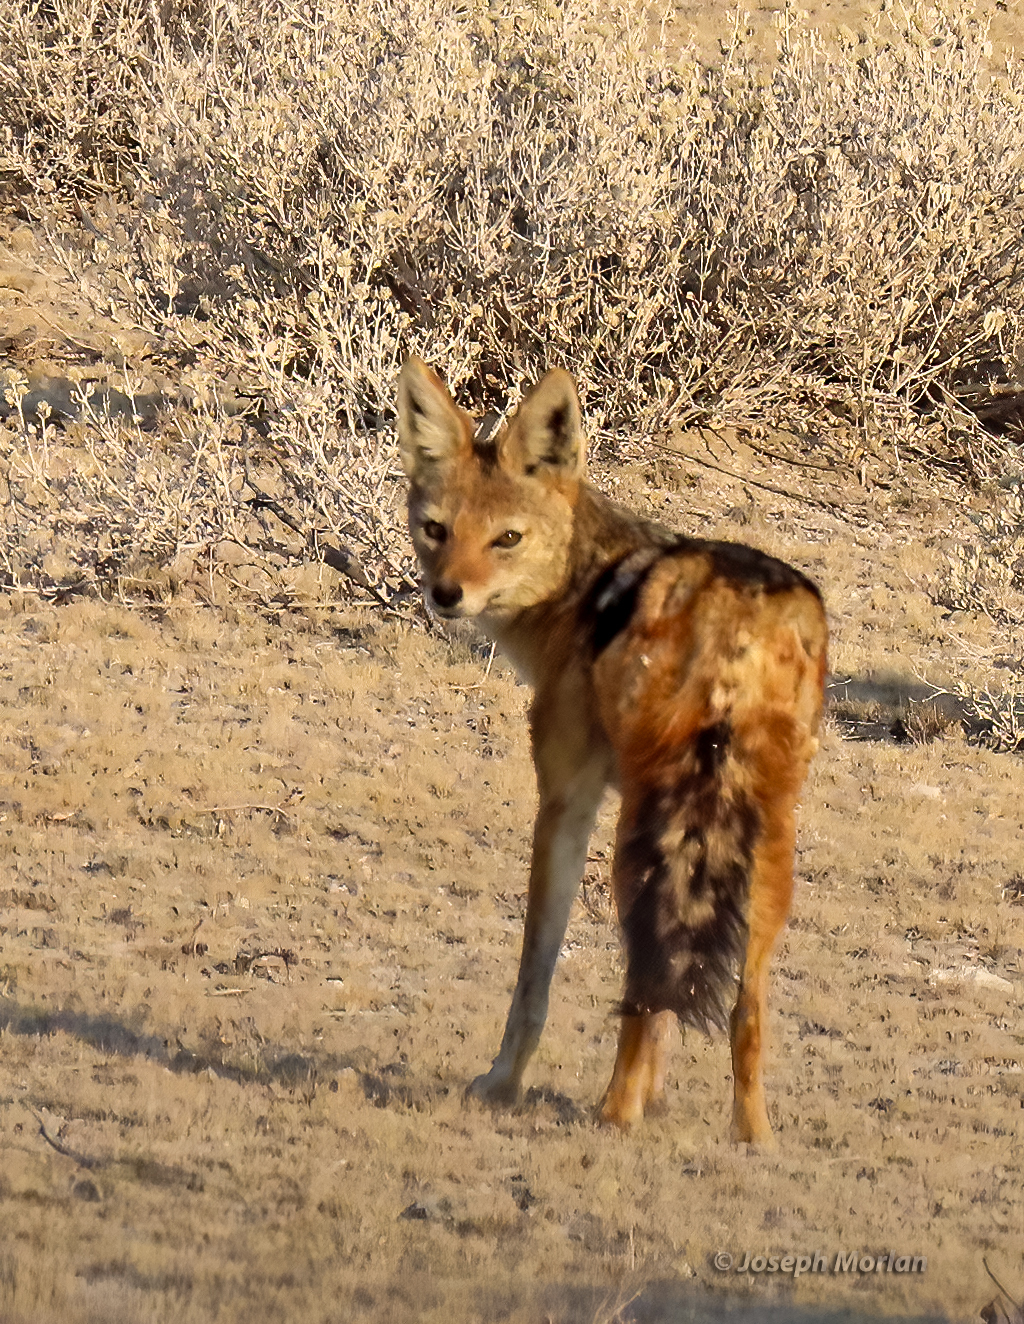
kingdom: Animalia
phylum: Chordata
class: Mammalia
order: Carnivora
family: Canidae
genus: Lupulella
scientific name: Lupulella
